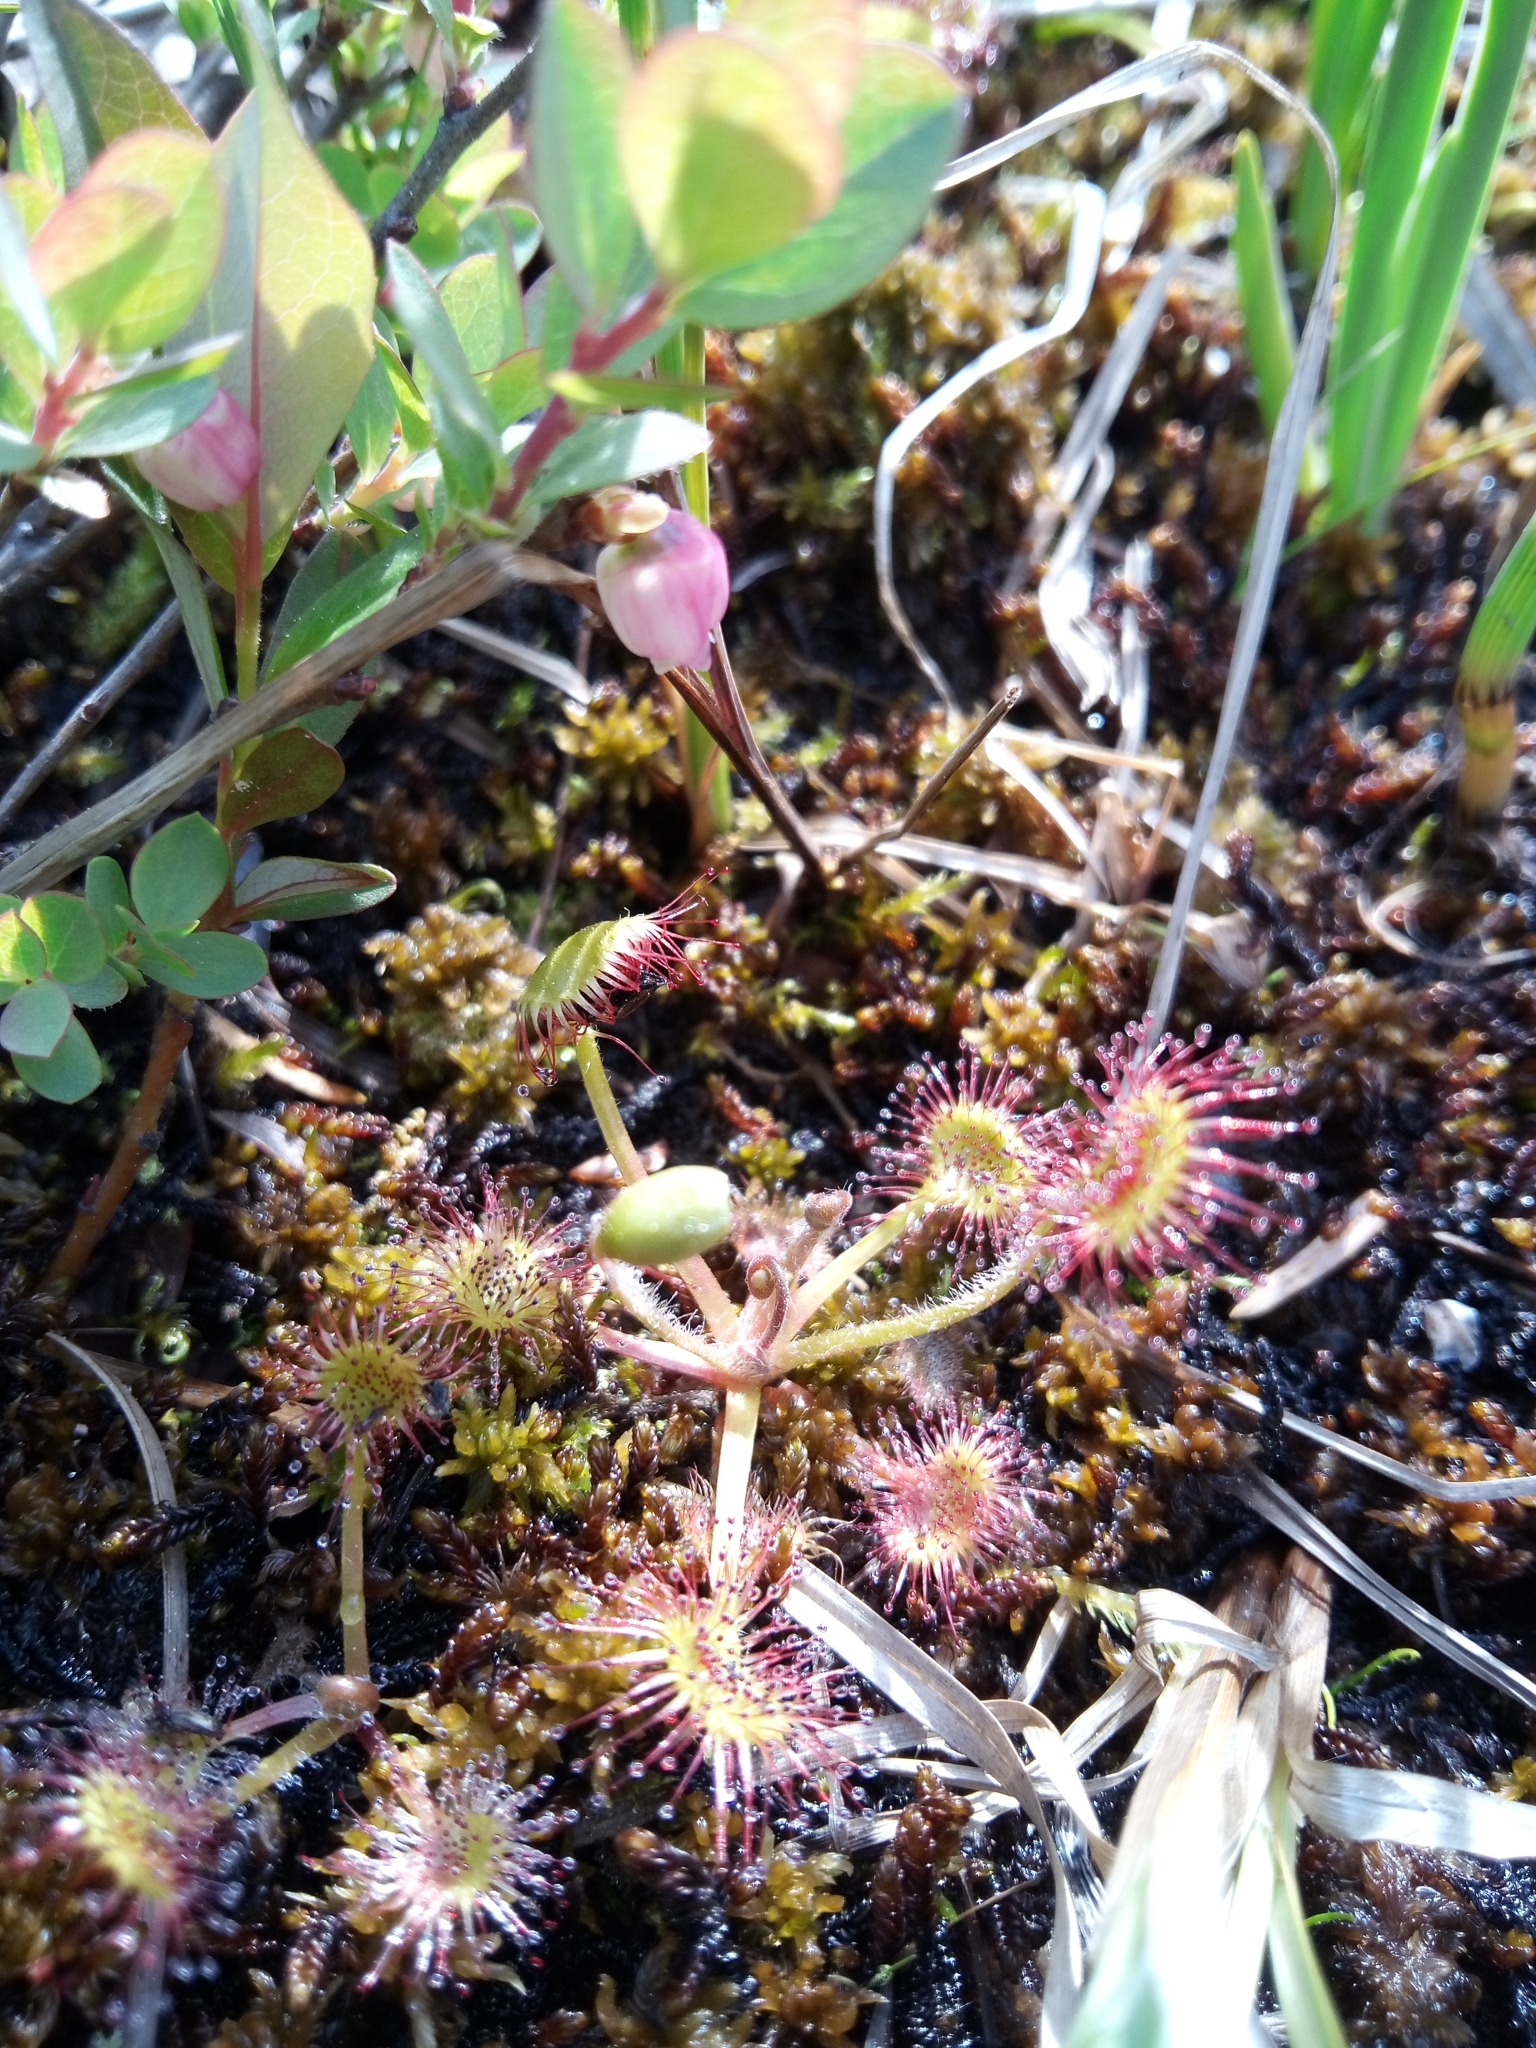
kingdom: Plantae
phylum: Tracheophyta
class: Magnoliopsida
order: Caryophyllales
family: Droseraceae
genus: Drosera
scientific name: Drosera rotundifolia
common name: Round-leaved sundew
